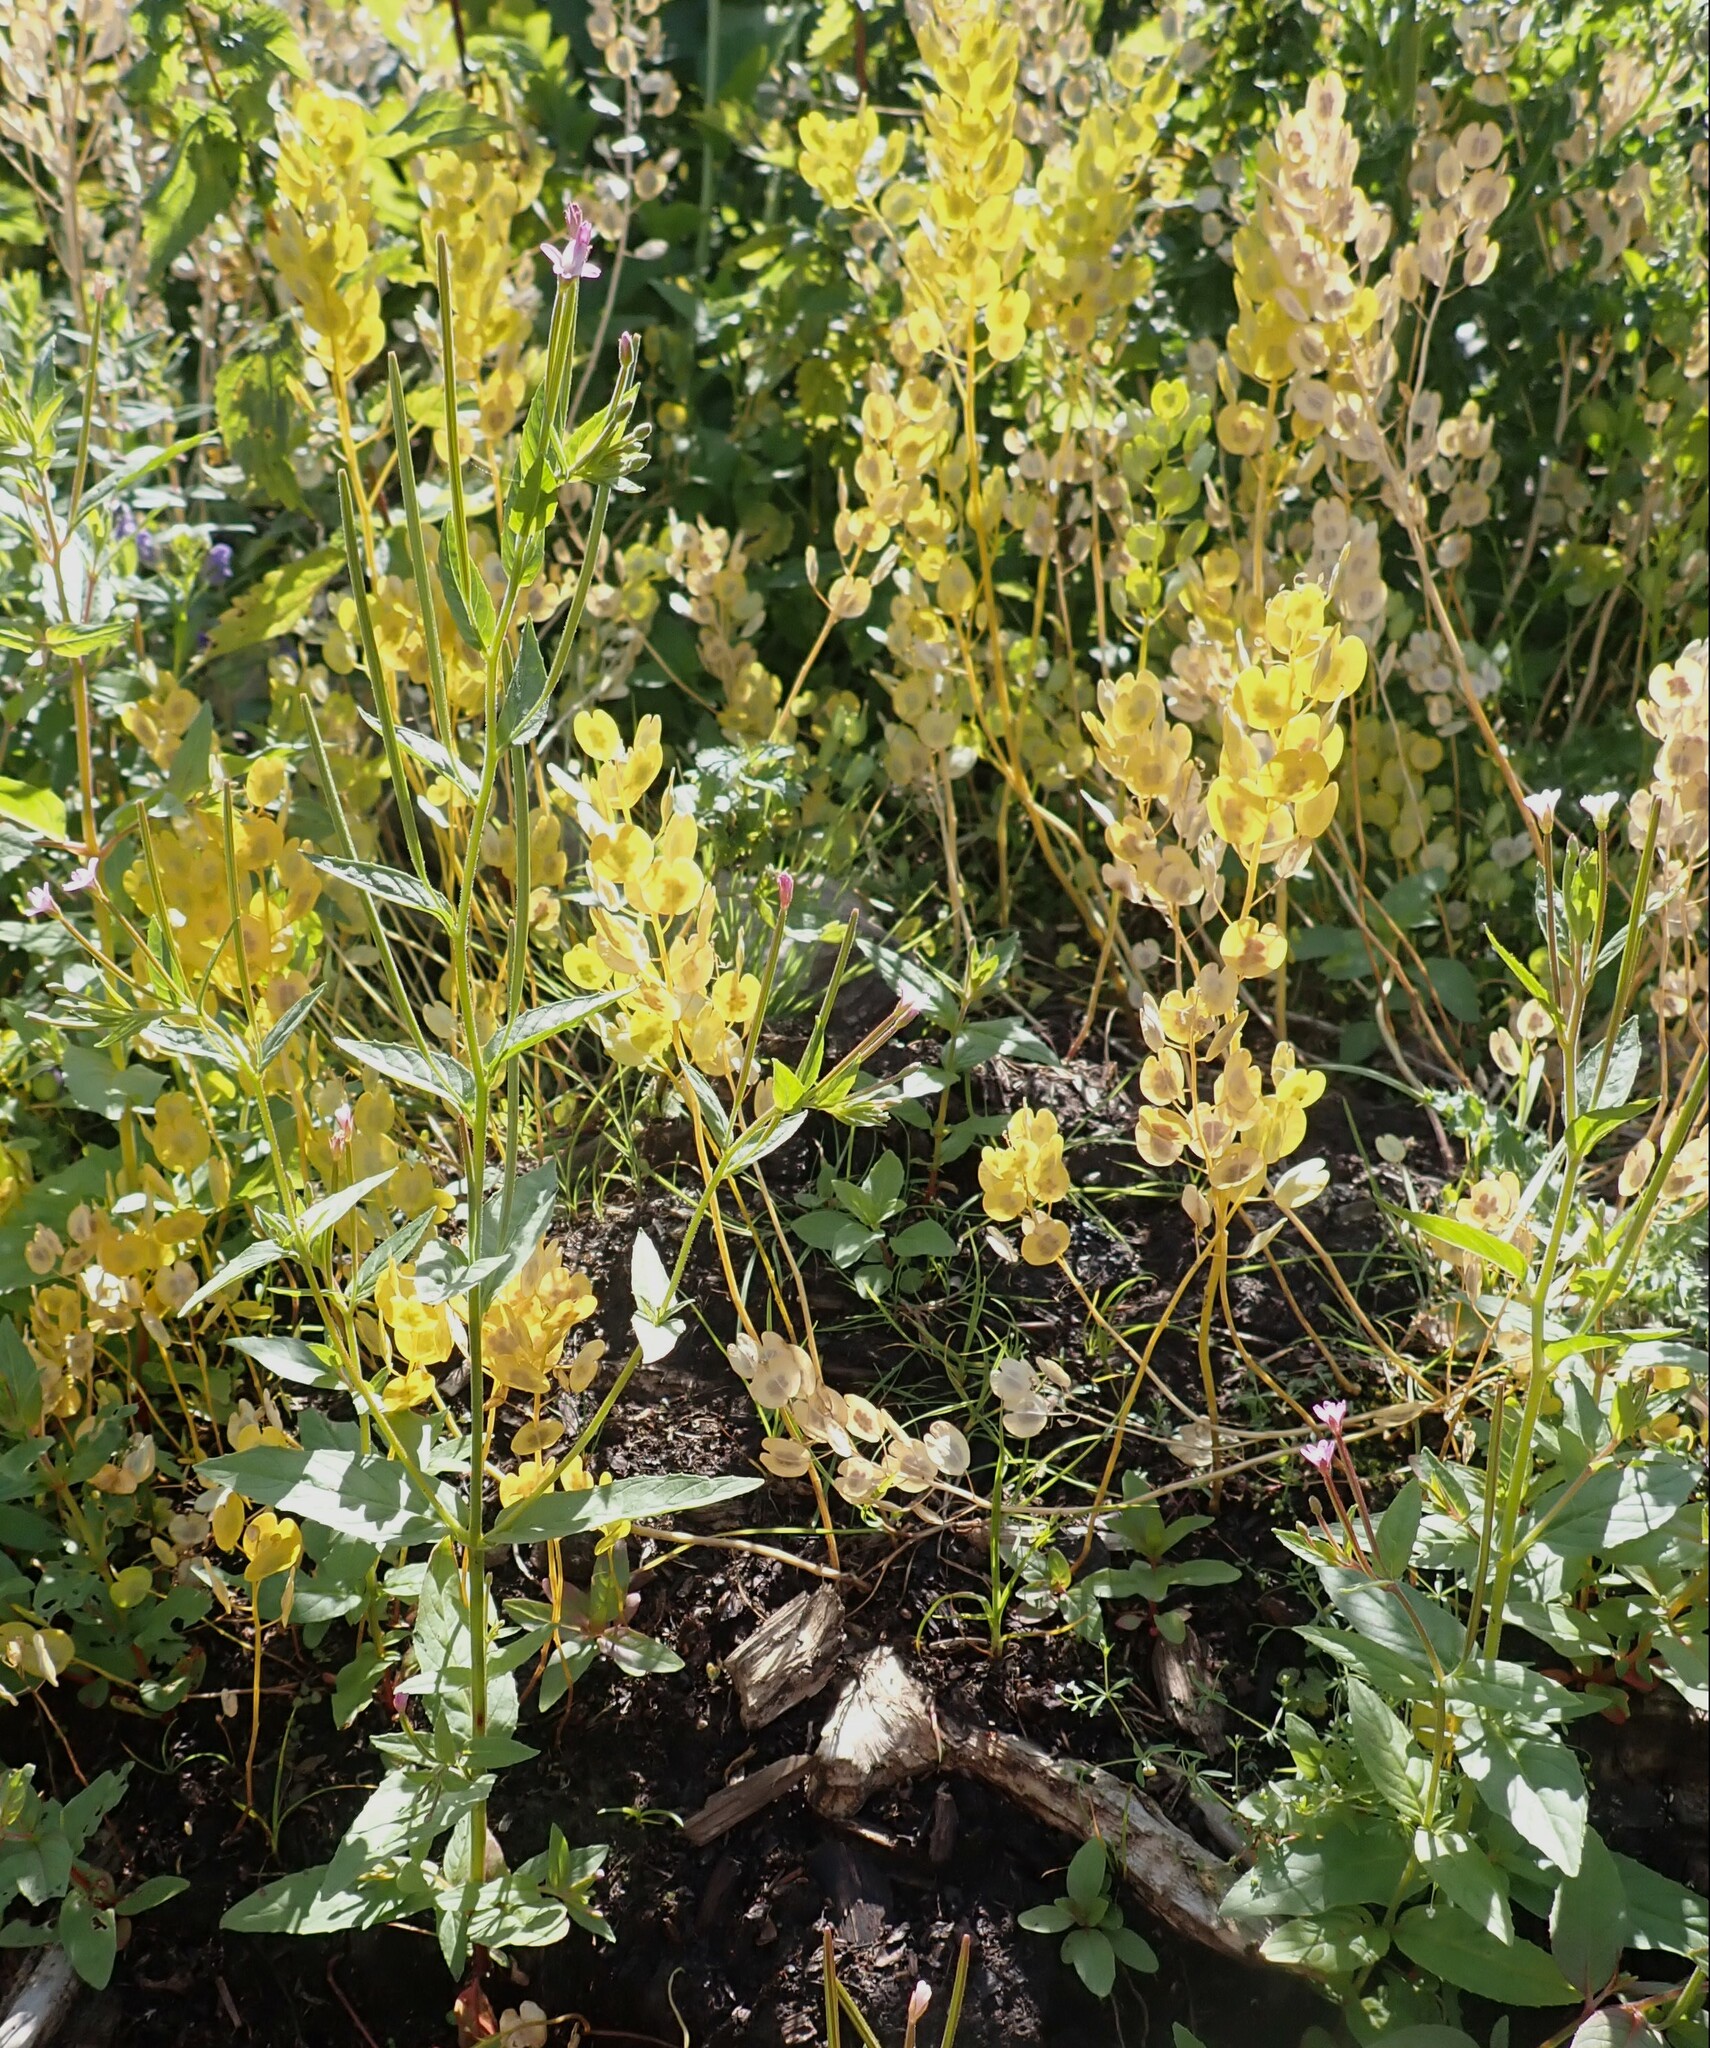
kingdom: Plantae
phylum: Tracheophyta
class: Magnoliopsida
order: Brassicales
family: Brassicaceae
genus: Thlaspi
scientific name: Thlaspi arvense
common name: Field pennycress
